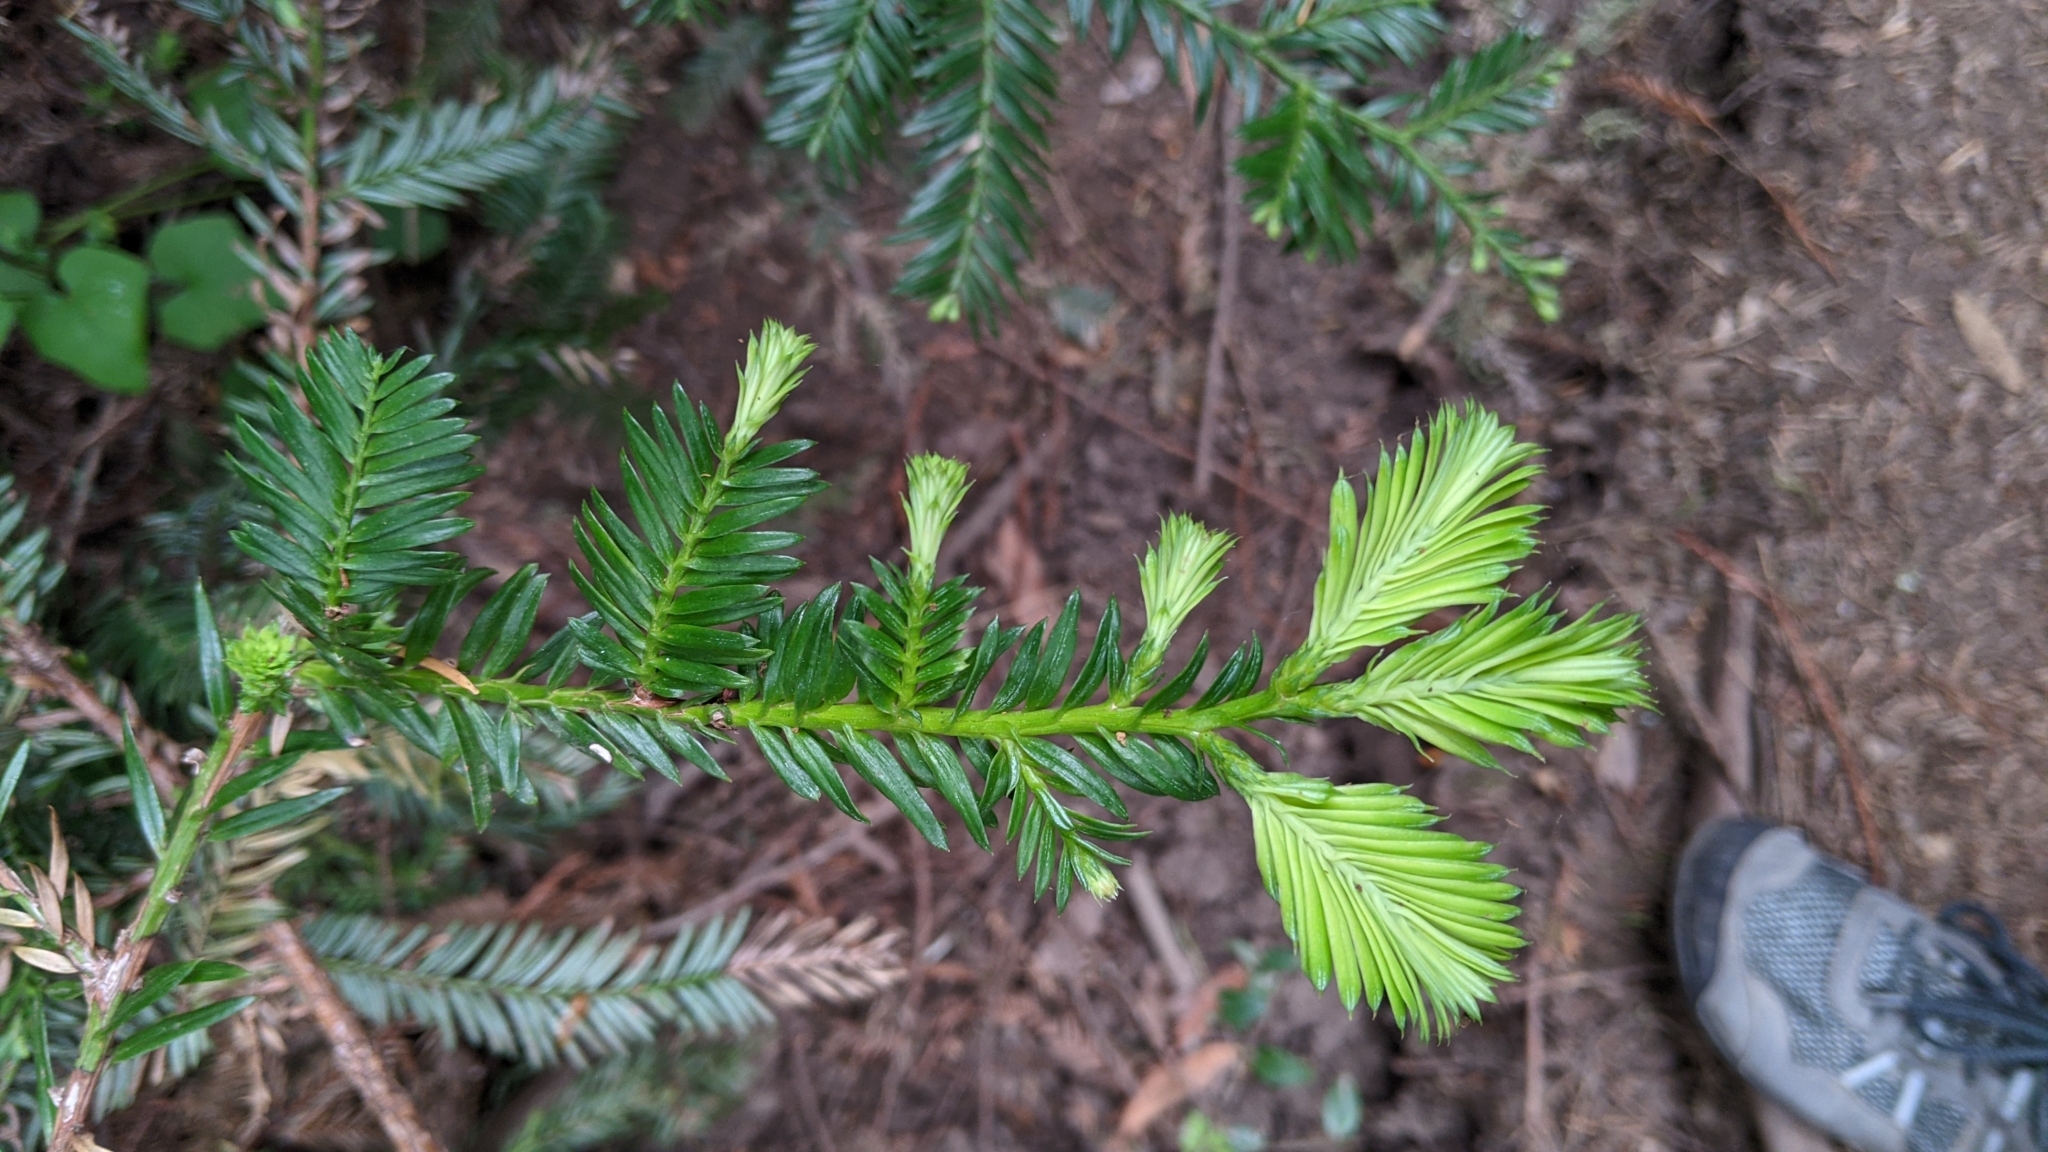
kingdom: Plantae
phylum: Tracheophyta
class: Pinopsida
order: Pinales
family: Cupressaceae
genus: Sequoia
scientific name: Sequoia sempervirens
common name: Coast redwood
